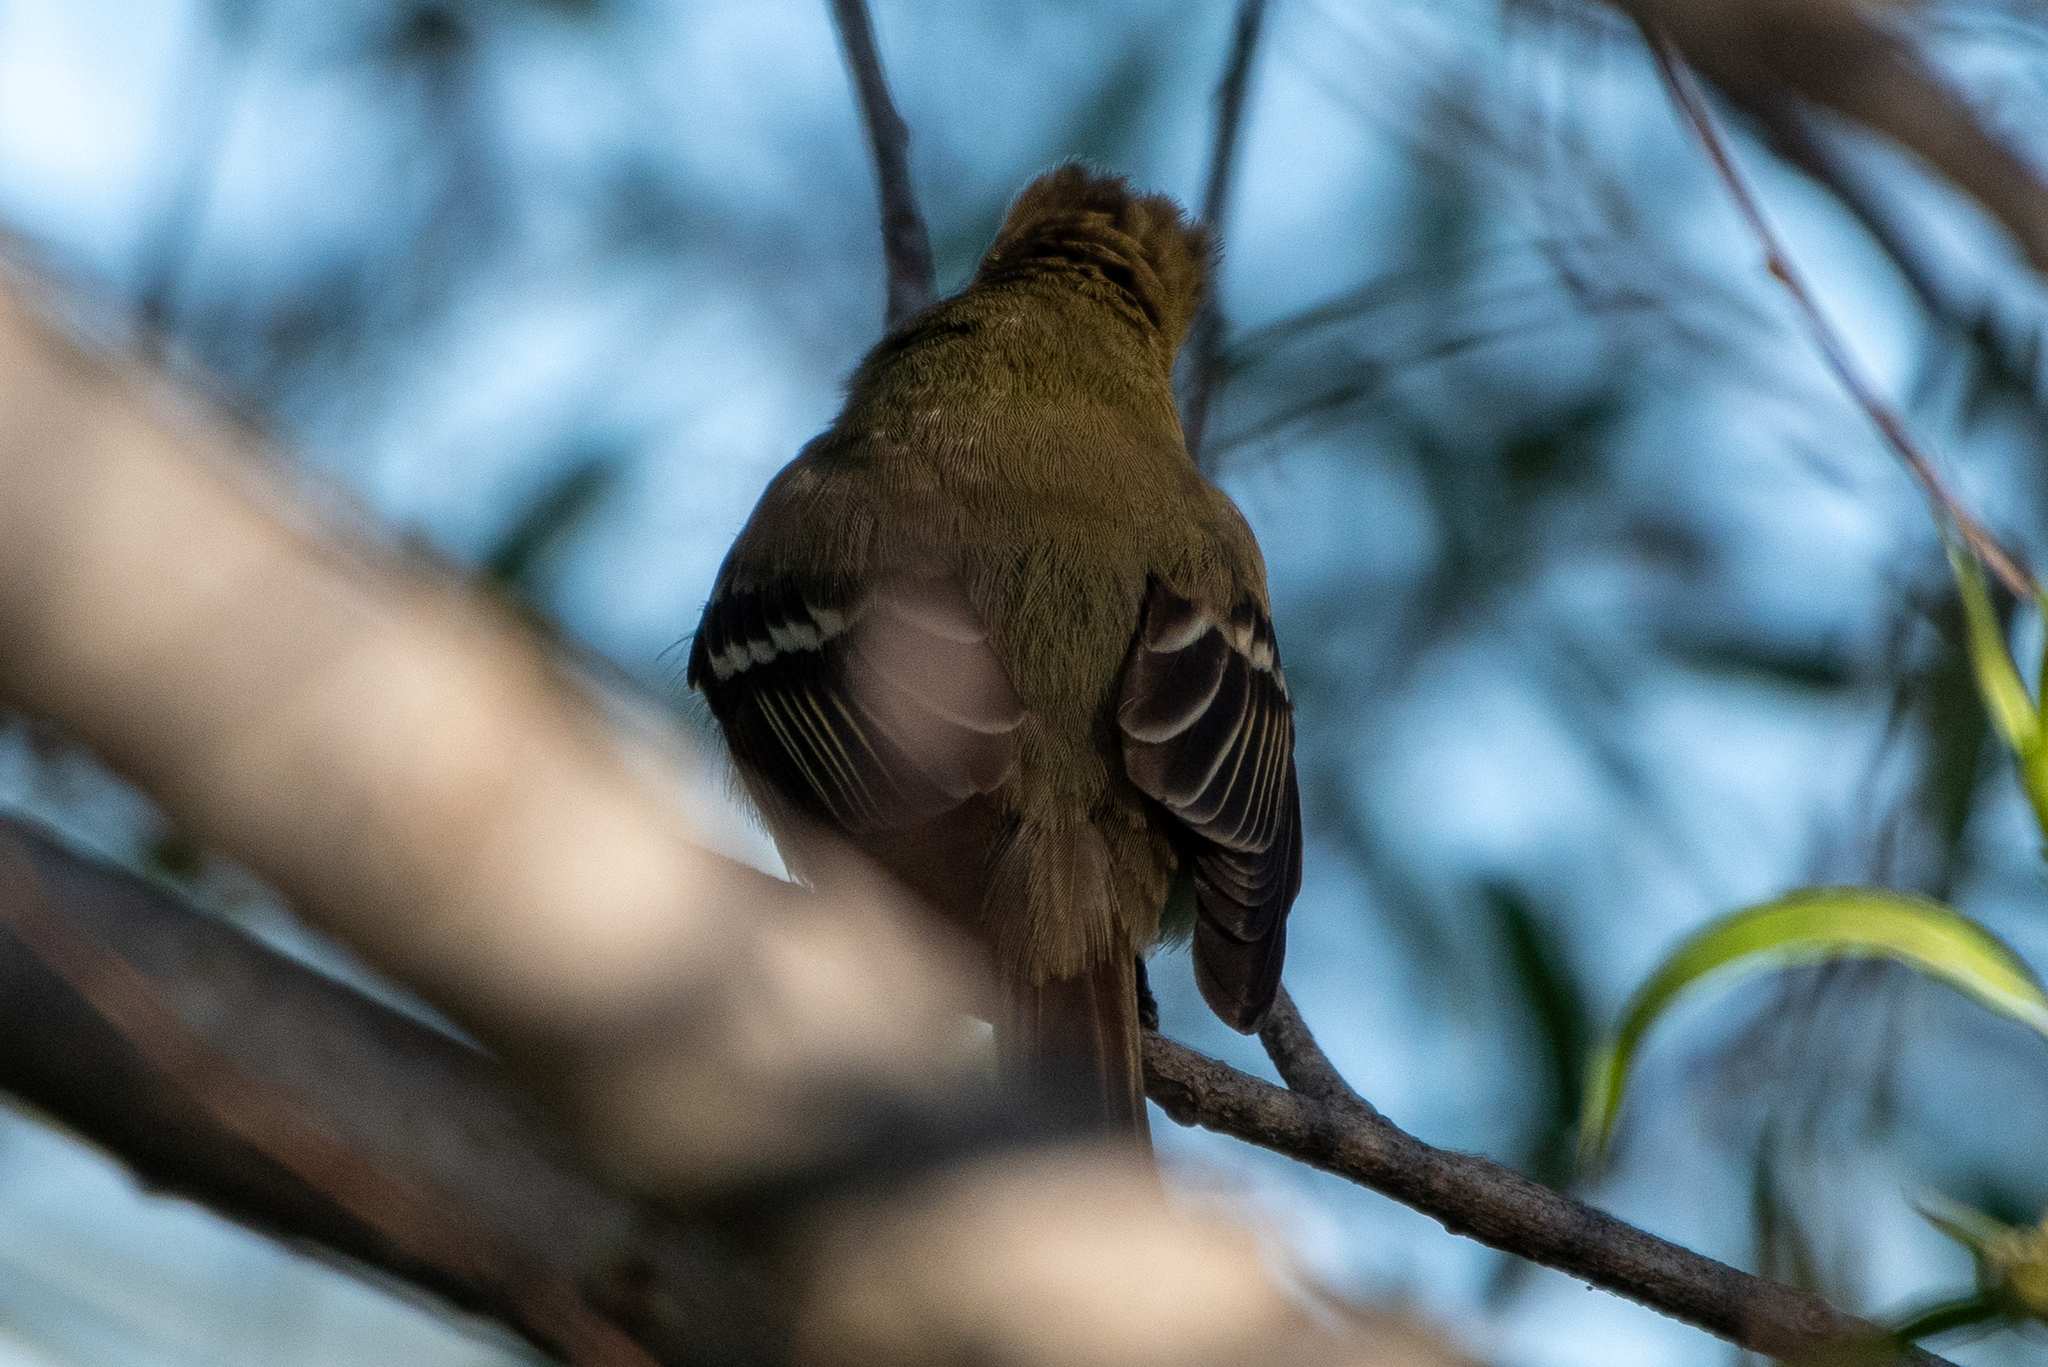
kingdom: Animalia
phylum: Chordata
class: Aves
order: Passeriformes
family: Tyrannidae
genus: Empidonax
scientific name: Empidonax difficilis
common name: Pacific-slope flycatcher
